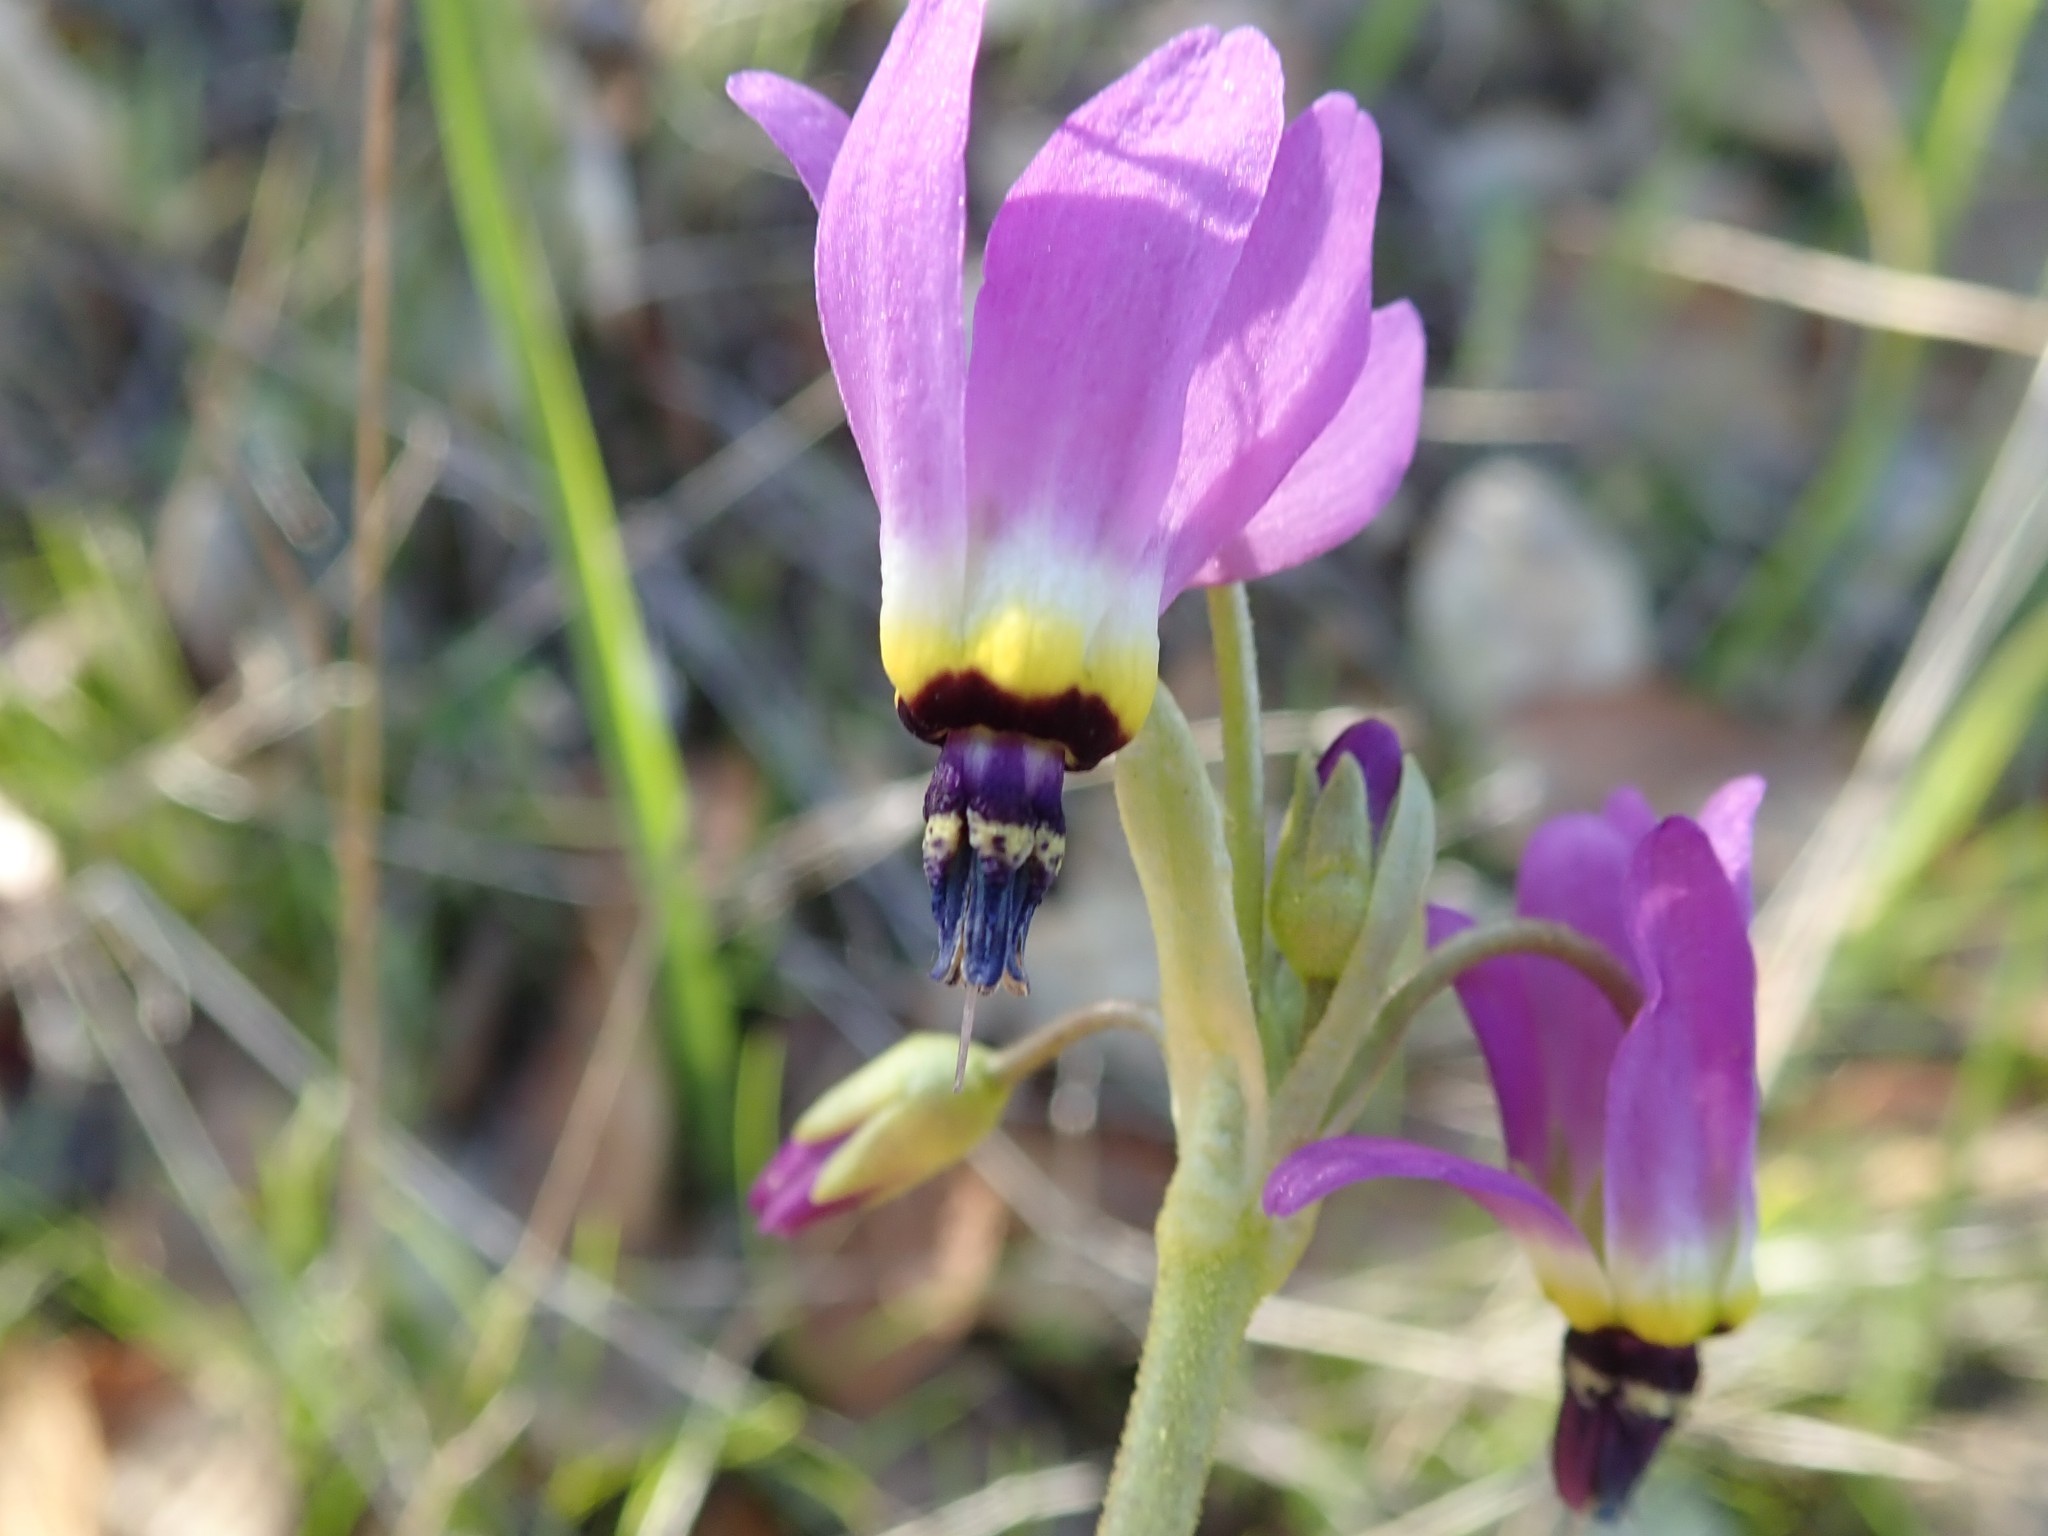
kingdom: Plantae
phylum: Tracheophyta
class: Magnoliopsida
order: Ericales
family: Primulaceae
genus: Dodecatheon
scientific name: Dodecatheon clevelandii
